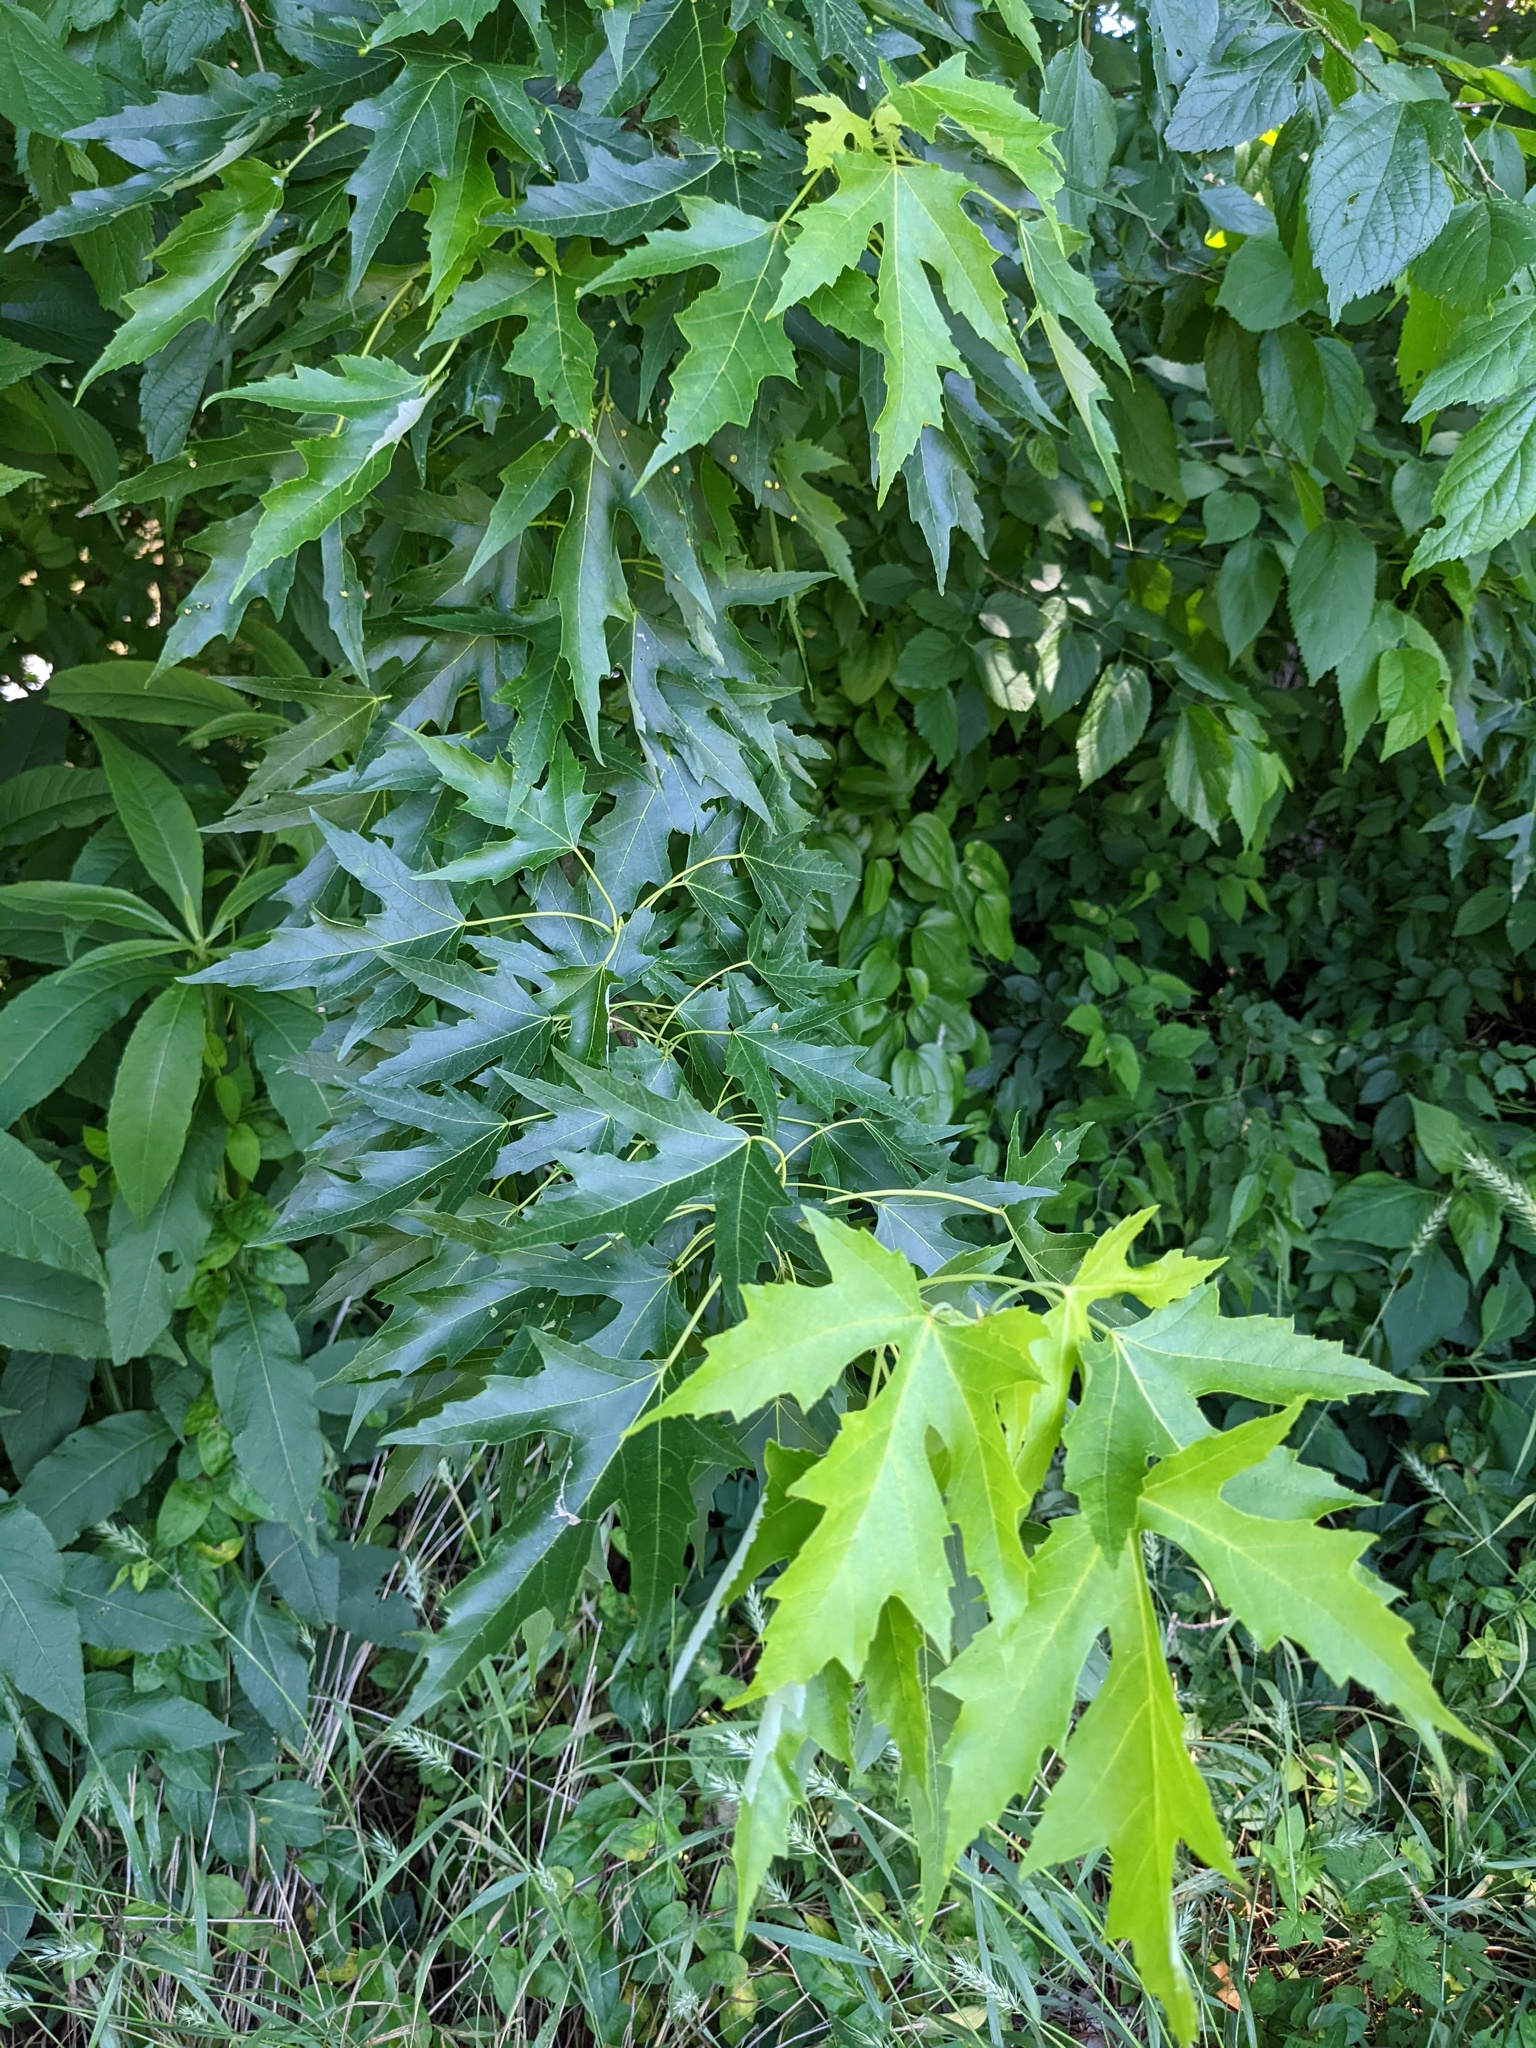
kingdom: Plantae
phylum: Tracheophyta
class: Magnoliopsida
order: Sapindales
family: Sapindaceae
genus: Acer
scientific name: Acer saccharinum
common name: Silver maple
